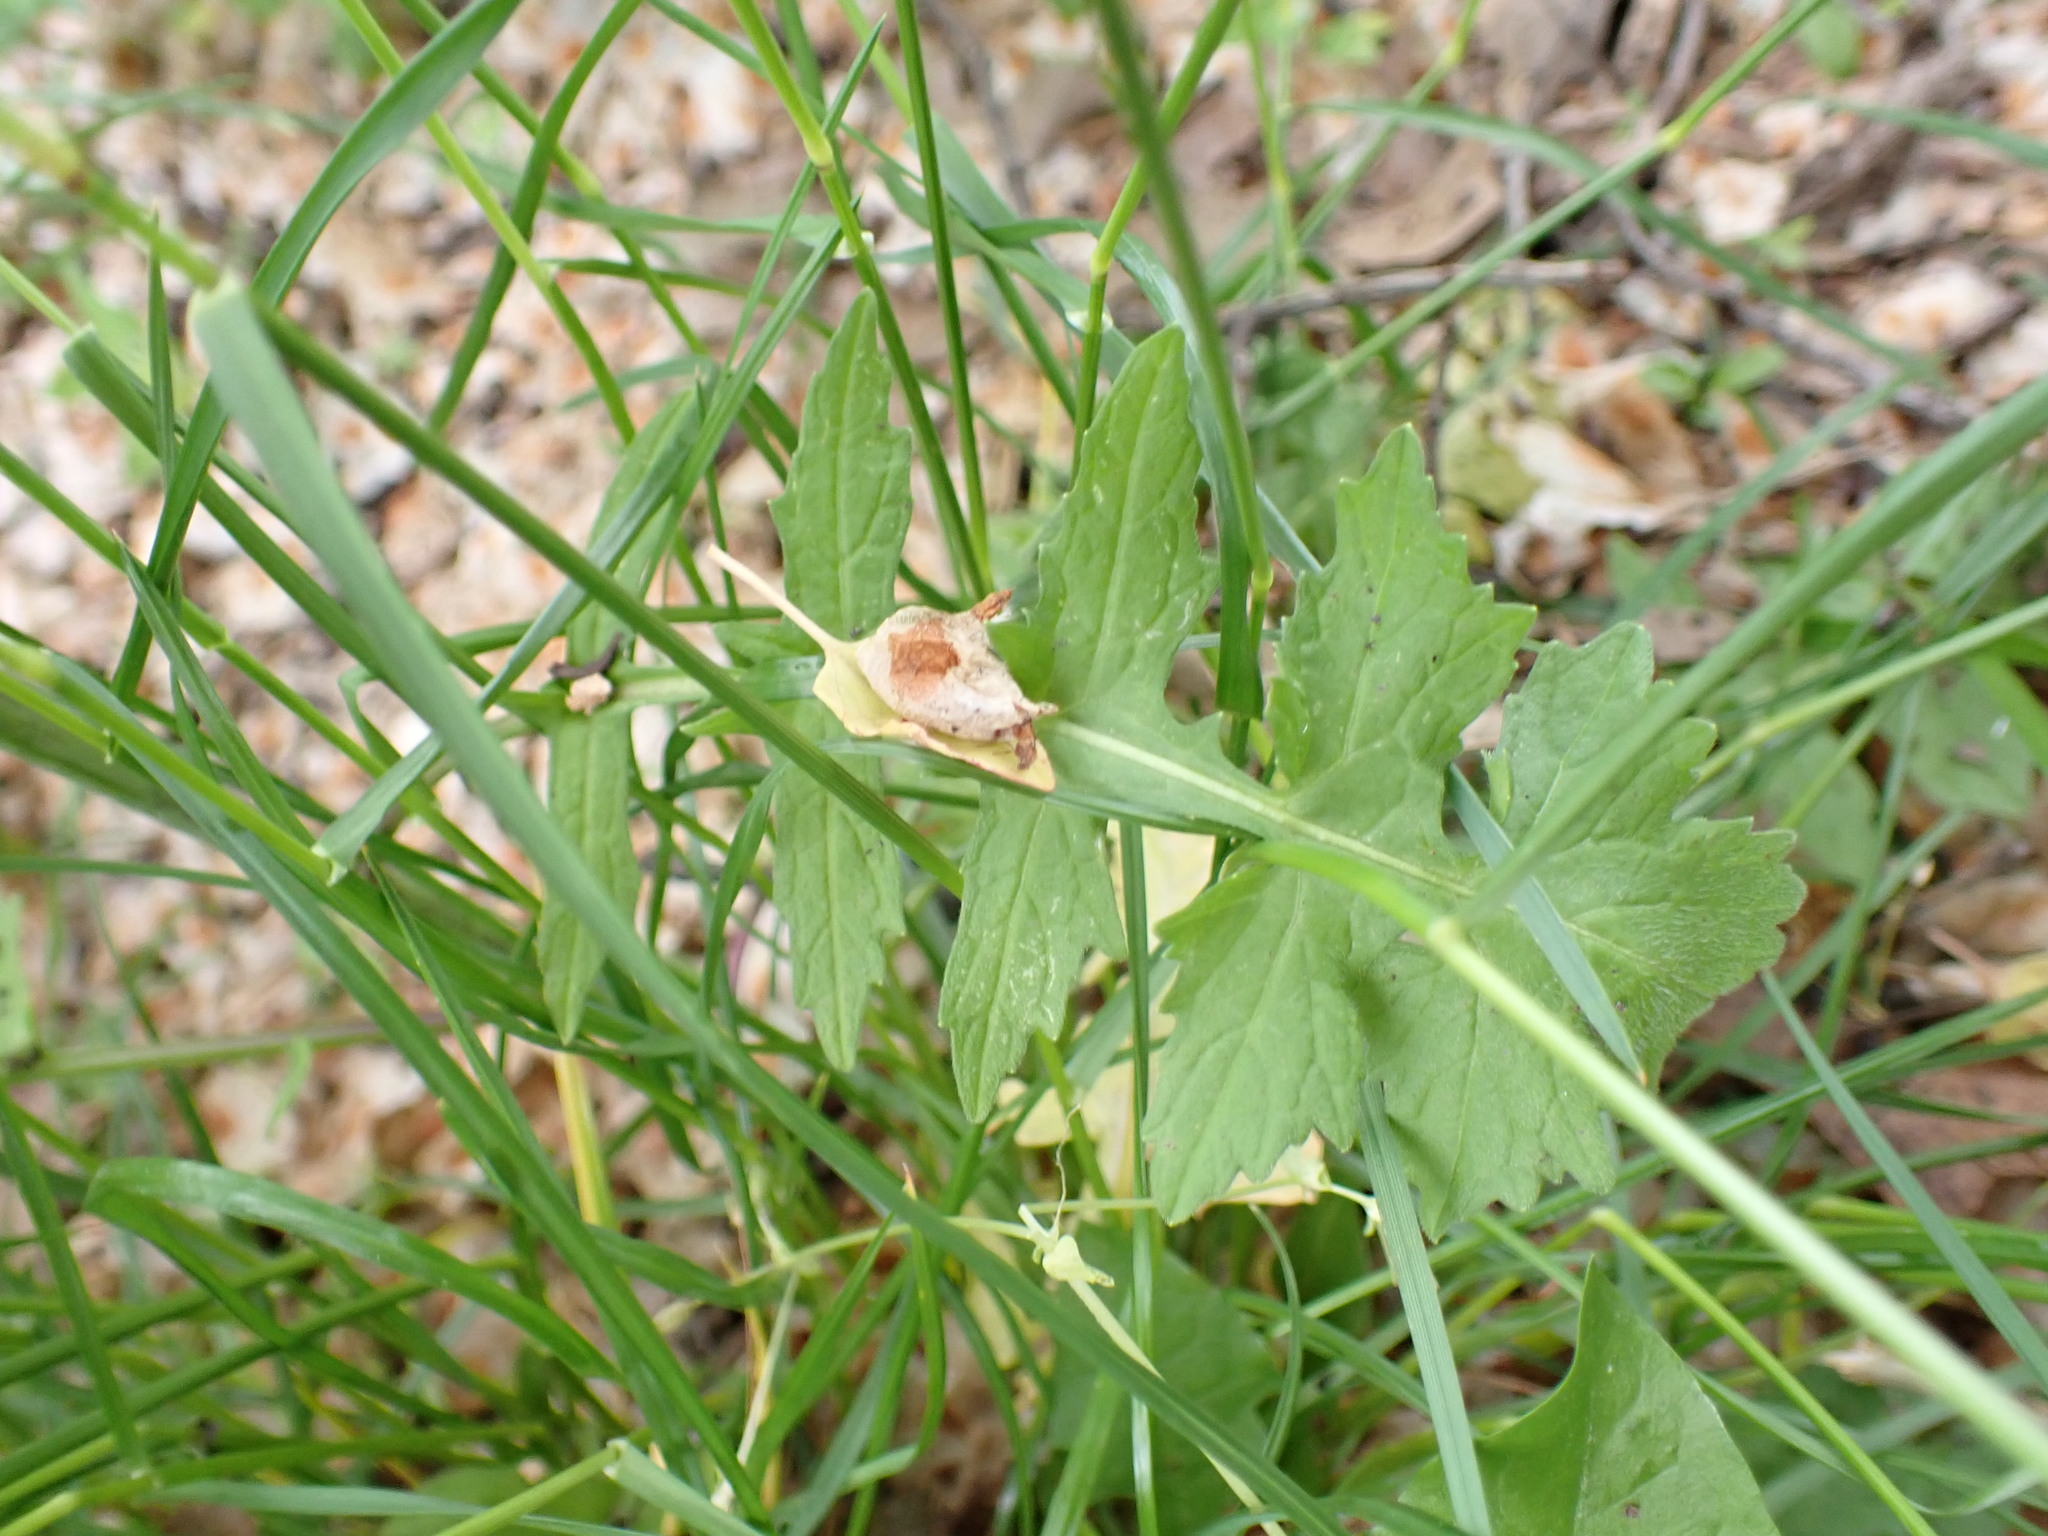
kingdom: Plantae
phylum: Tracheophyta
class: Magnoliopsida
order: Brassicales
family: Brassicaceae
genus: Sisymbrium
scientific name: Sisymbrium officinale
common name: Hedge mustard
